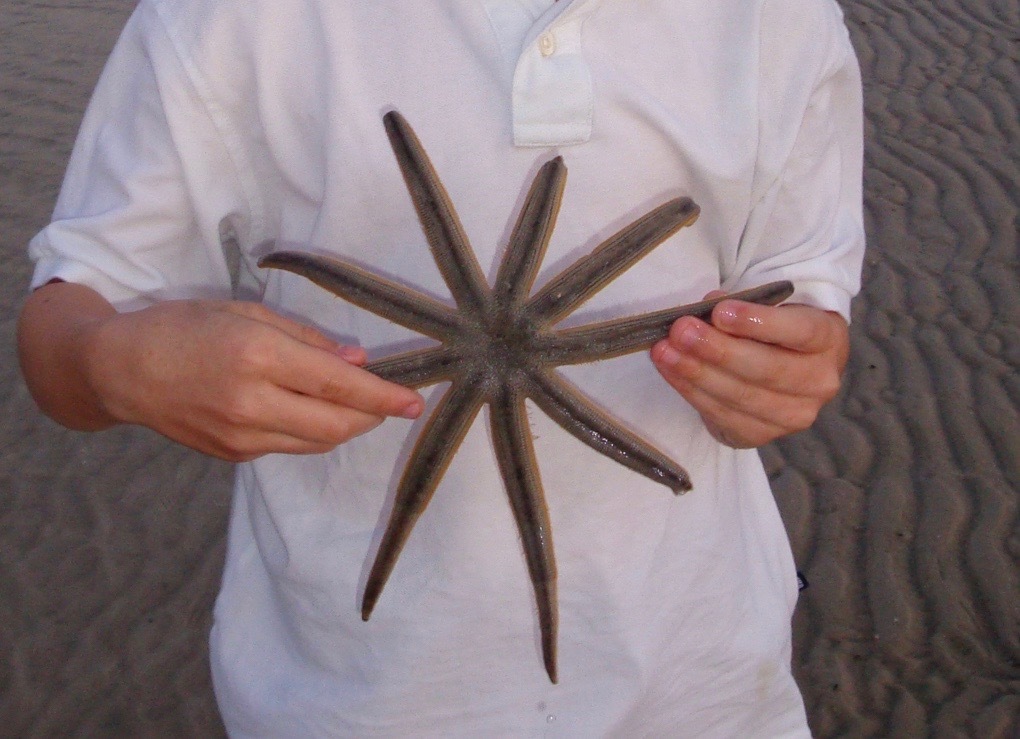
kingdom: Animalia
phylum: Echinodermata
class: Asteroidea
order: Paxillosida
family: Luidiidae
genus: Luidia
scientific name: Luidia senegalensis
